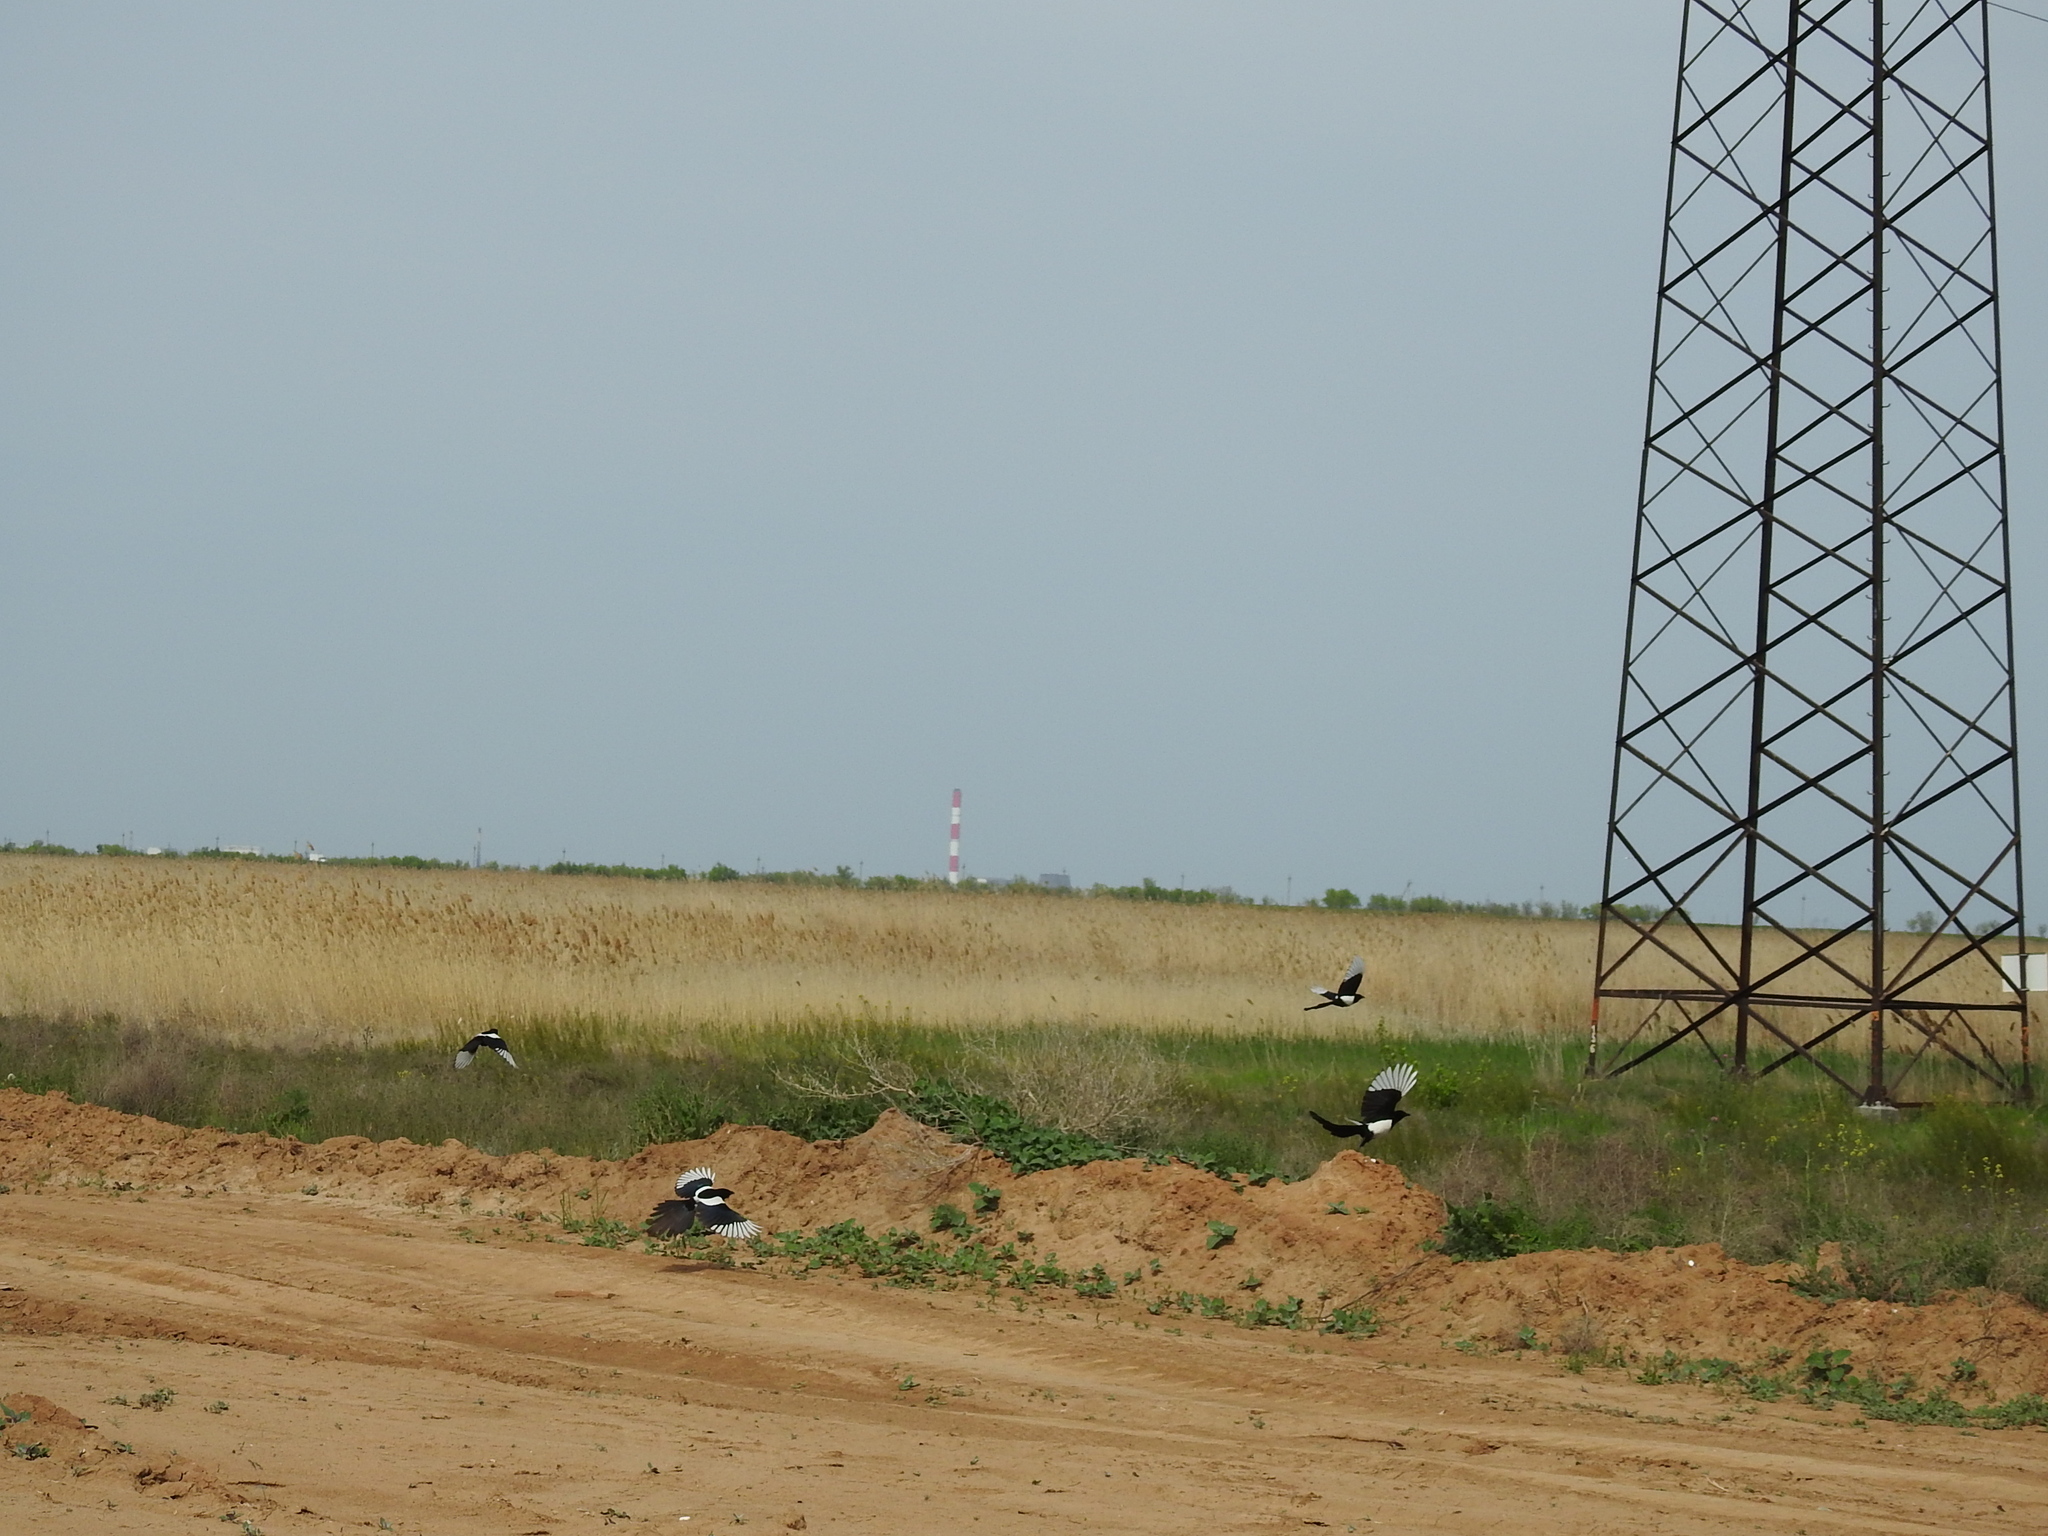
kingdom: Animalia
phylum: Chordata
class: Aves
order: Passeriformes
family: Corvidae
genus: Pica
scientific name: Pica pica
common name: Eurasian magpie
